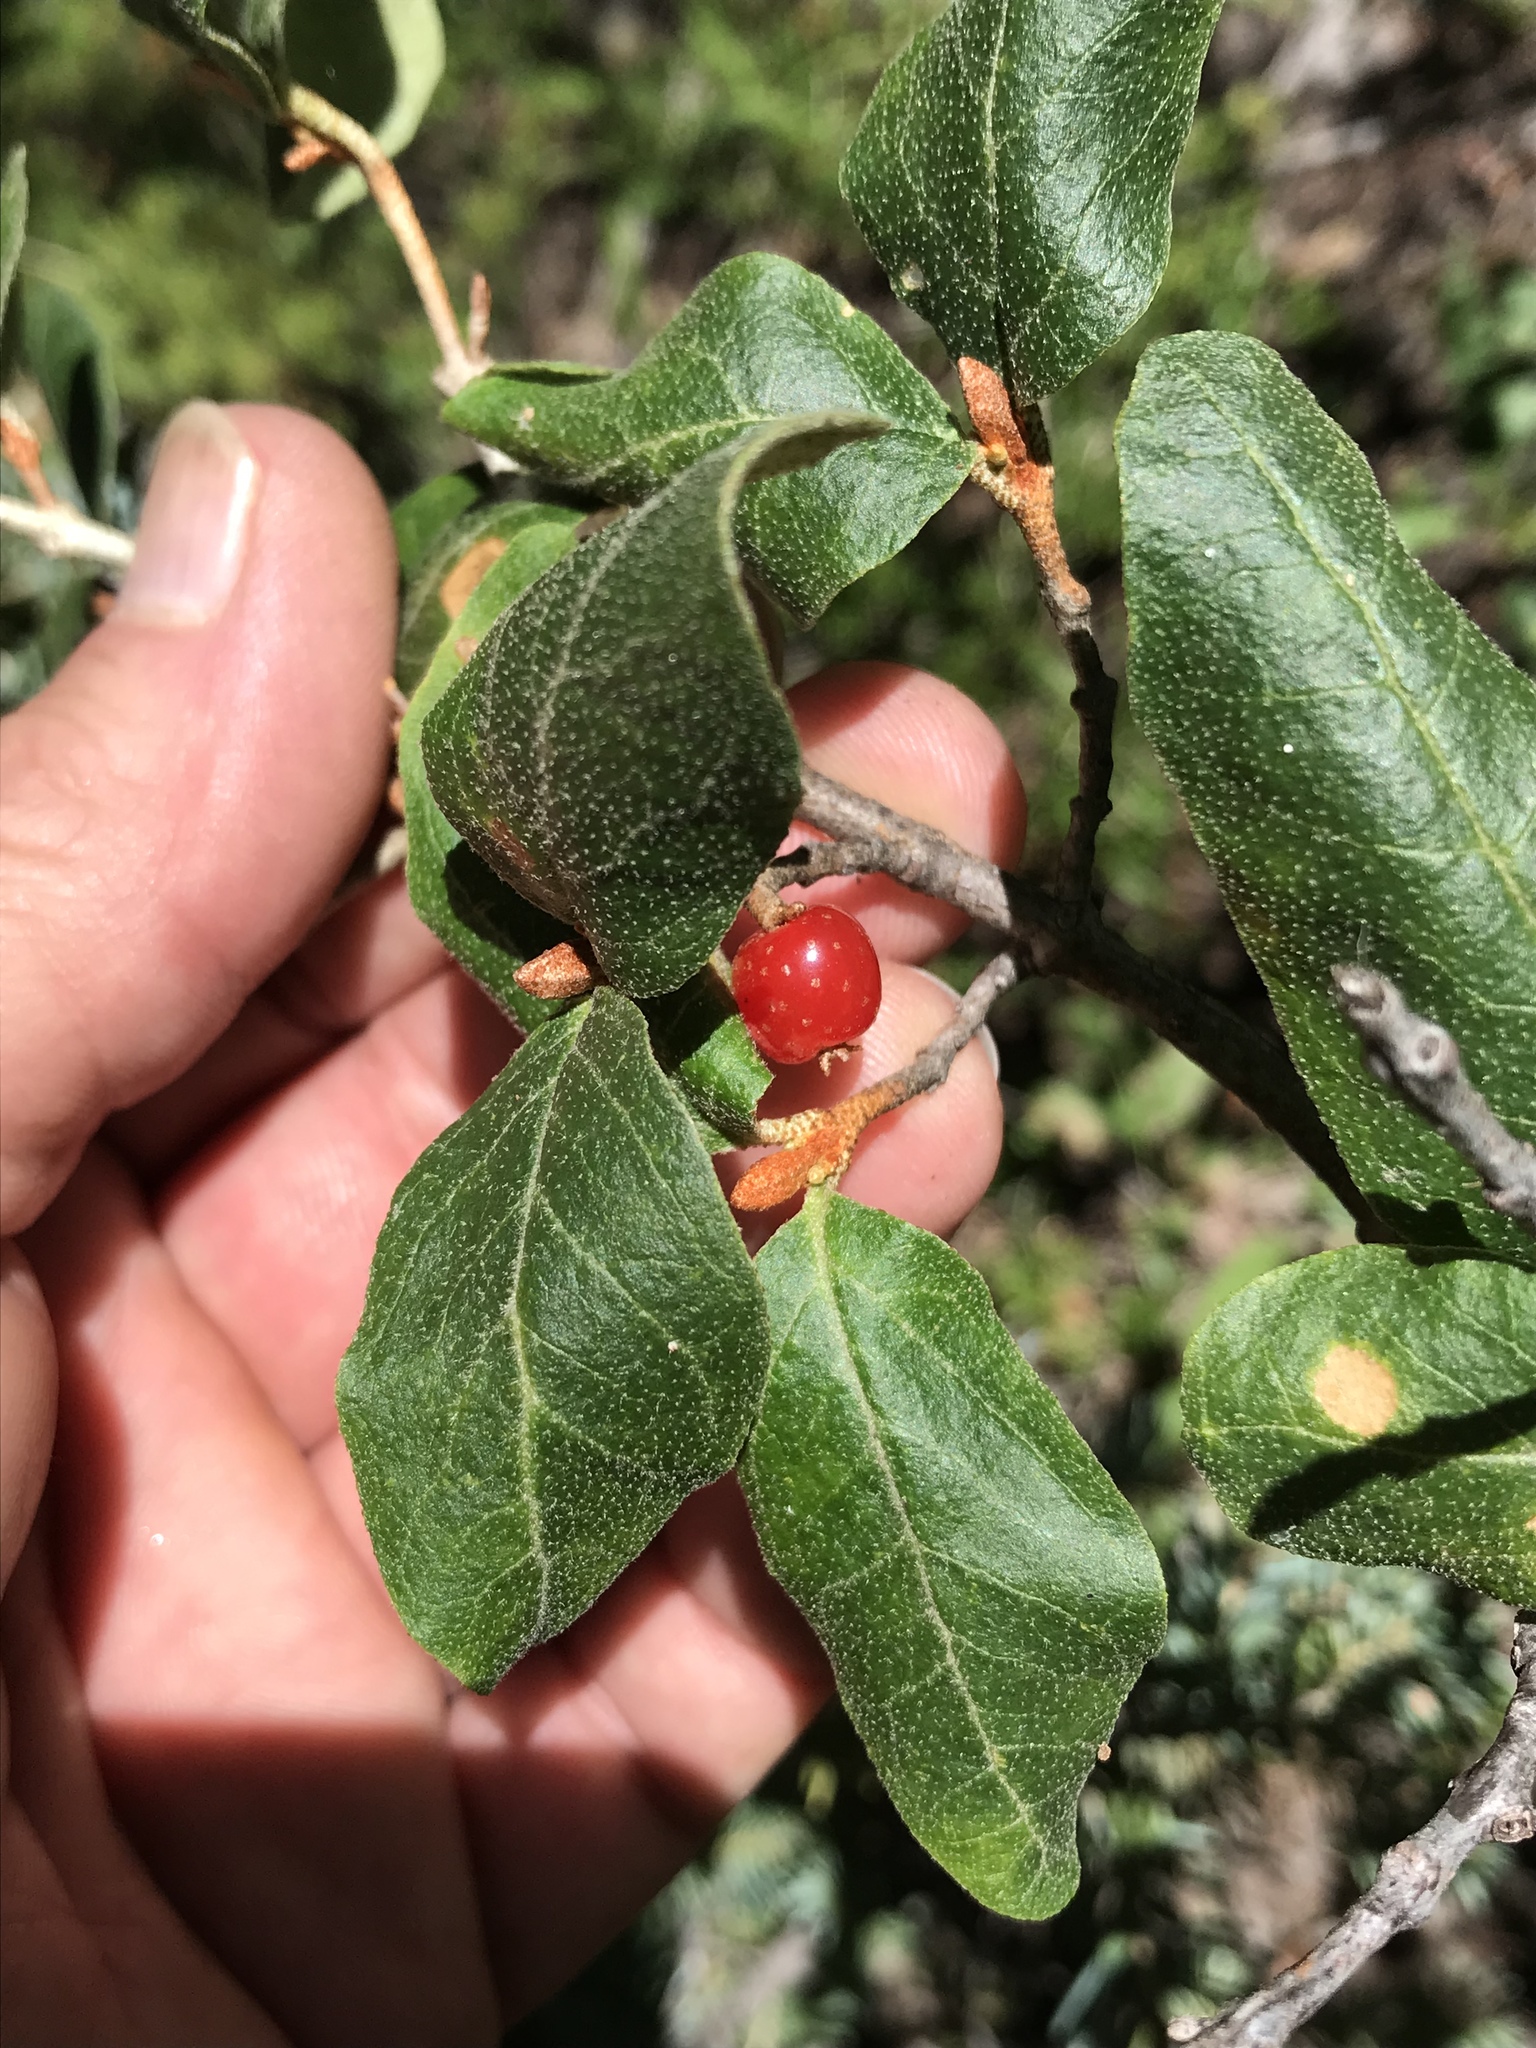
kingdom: Plantae
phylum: Tracheophyta
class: Magnoliopsida
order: Rosales
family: Elaeagnaceae
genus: Shepherdia
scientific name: Shepherdia canadensis
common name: Soapberry
